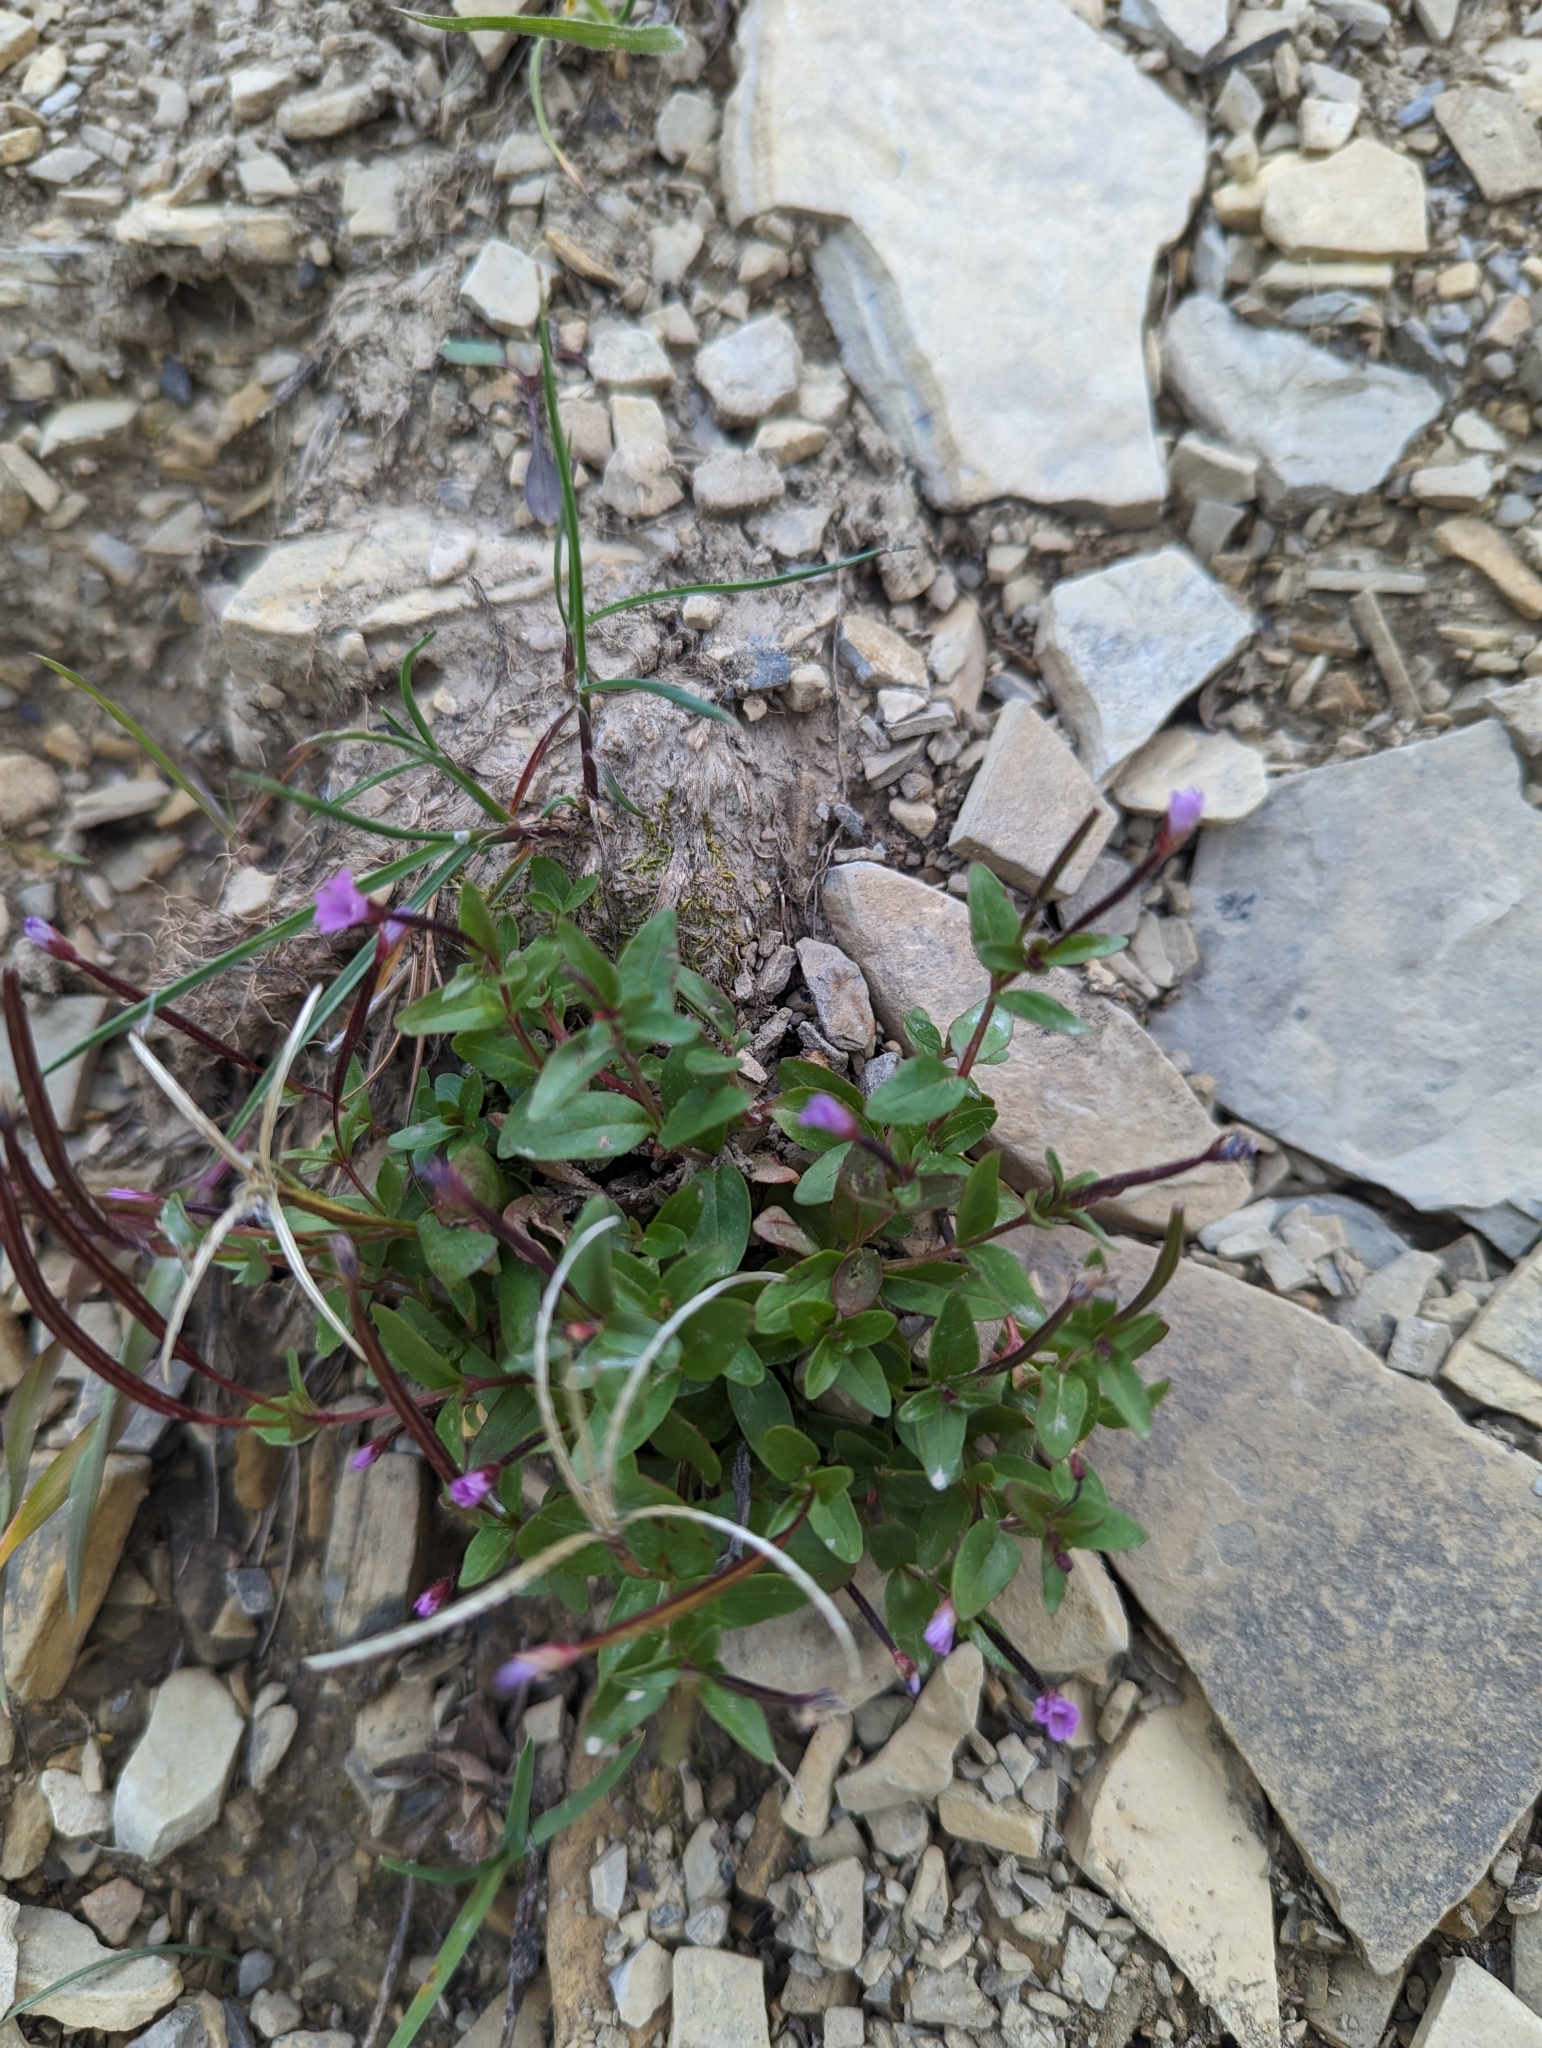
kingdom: Plantae
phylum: Tracheophyta
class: Magnoliopsida
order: Myrtales
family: Onagraceae
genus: Epilobium
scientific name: Epilobium anagallidifolium
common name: Alpine willowherb
